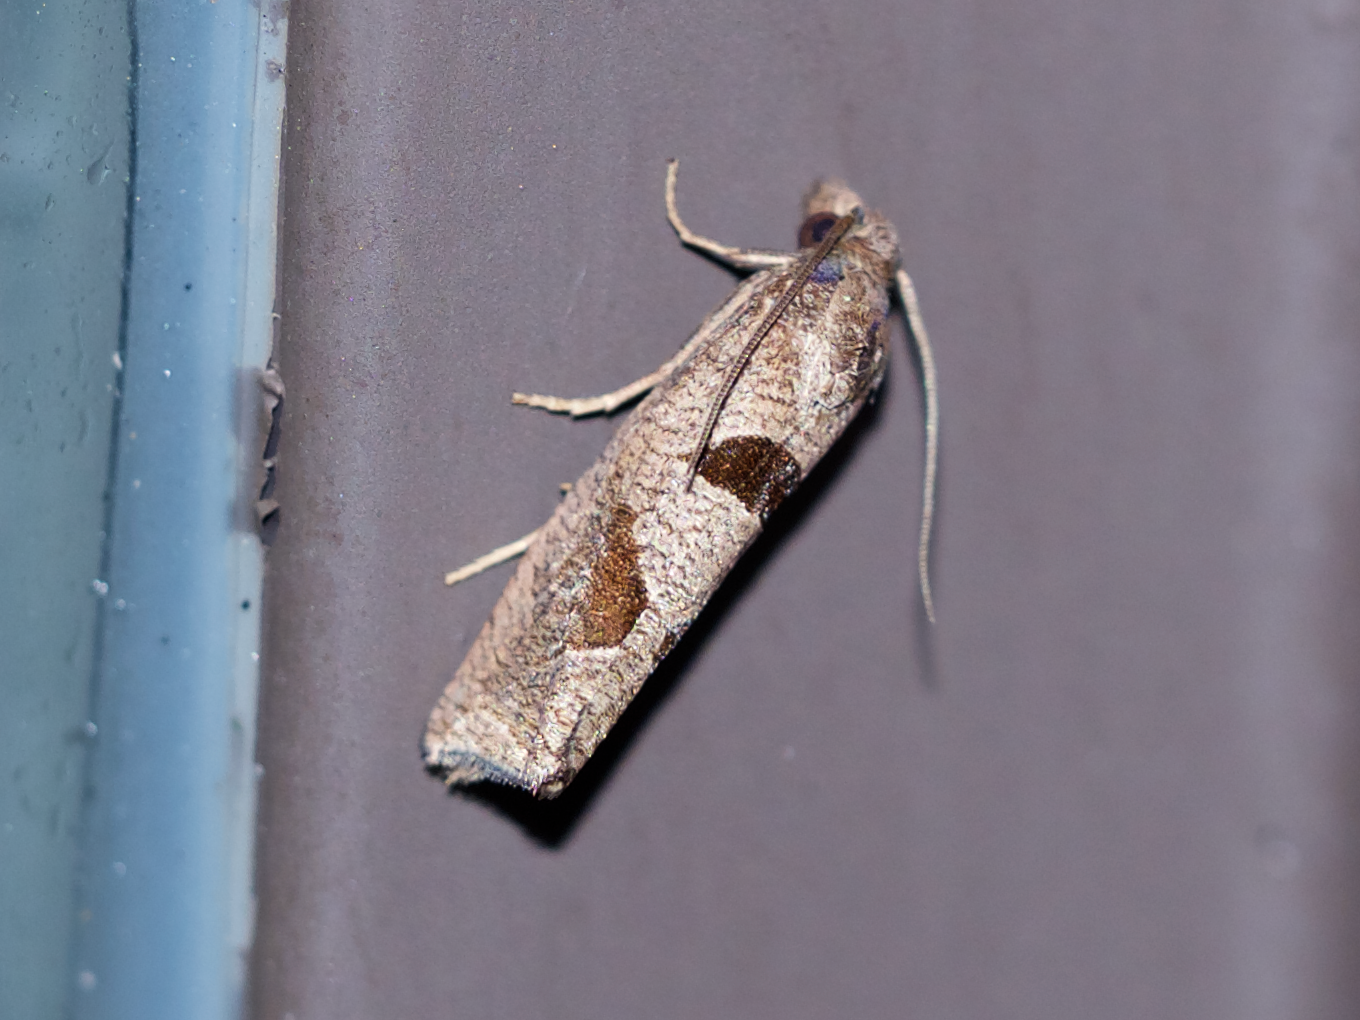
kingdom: Animalia
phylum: Arthropoda
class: Insecta
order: Lepidoptera
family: Tortricidae
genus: Pelochrista
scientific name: Pelochrista oraria
